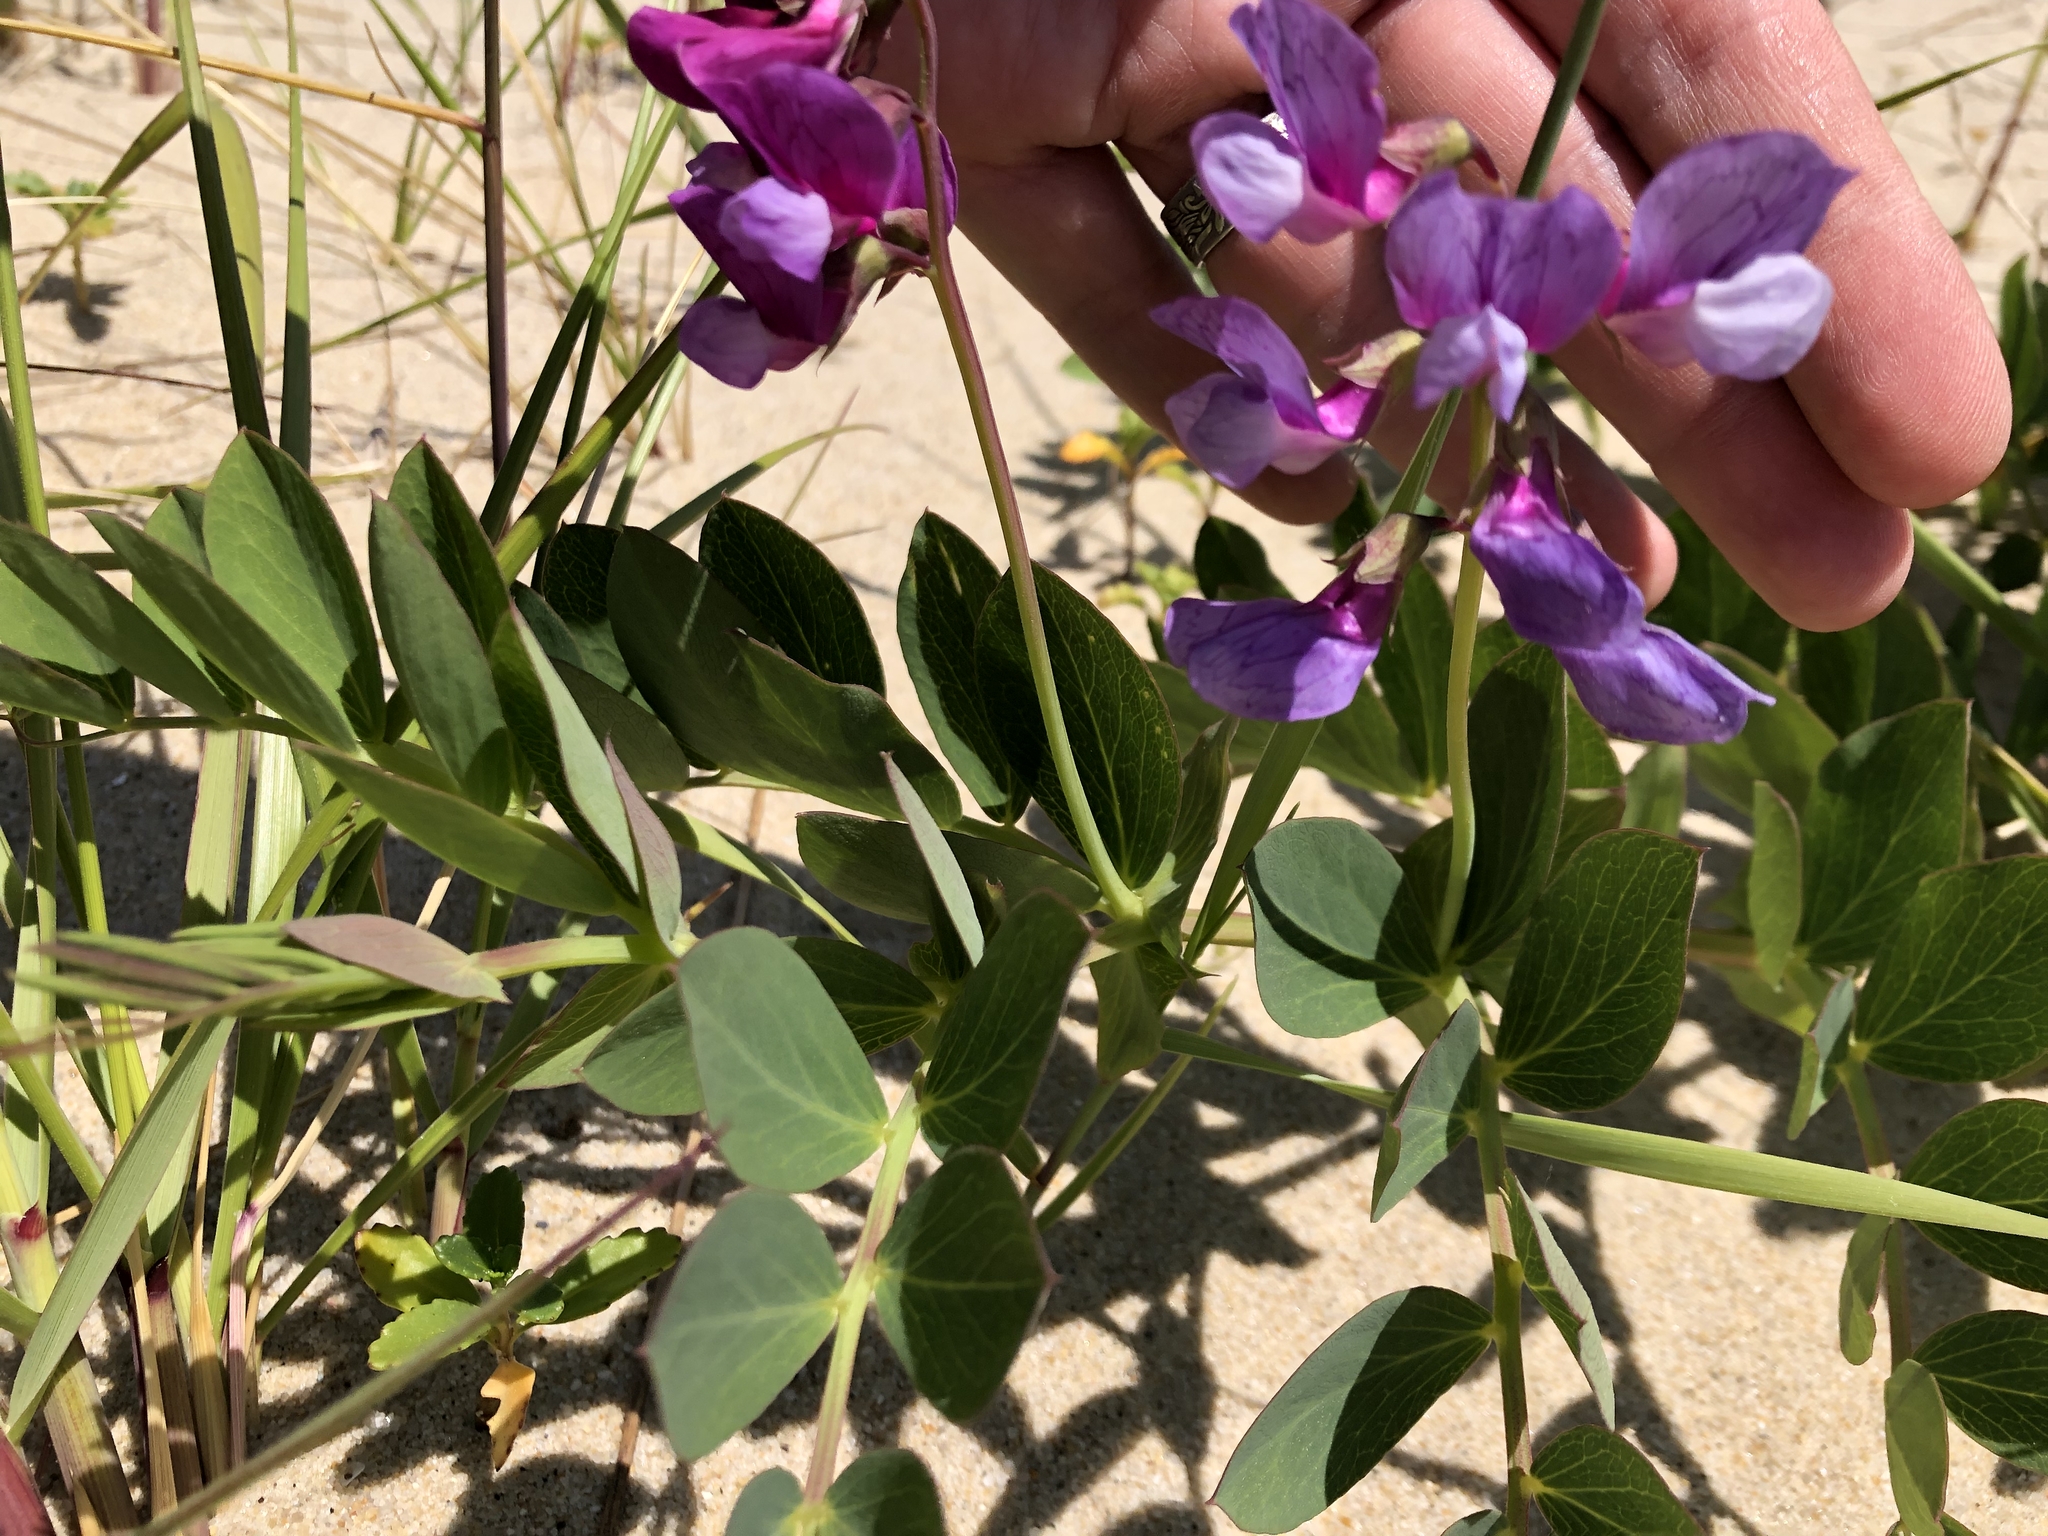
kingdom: Plantae
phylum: Tracheophyta
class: Magnoliopsida
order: Fabales
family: Fabaceae
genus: Lathyrus
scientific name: Lathyrus japonicus
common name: Sea pea
